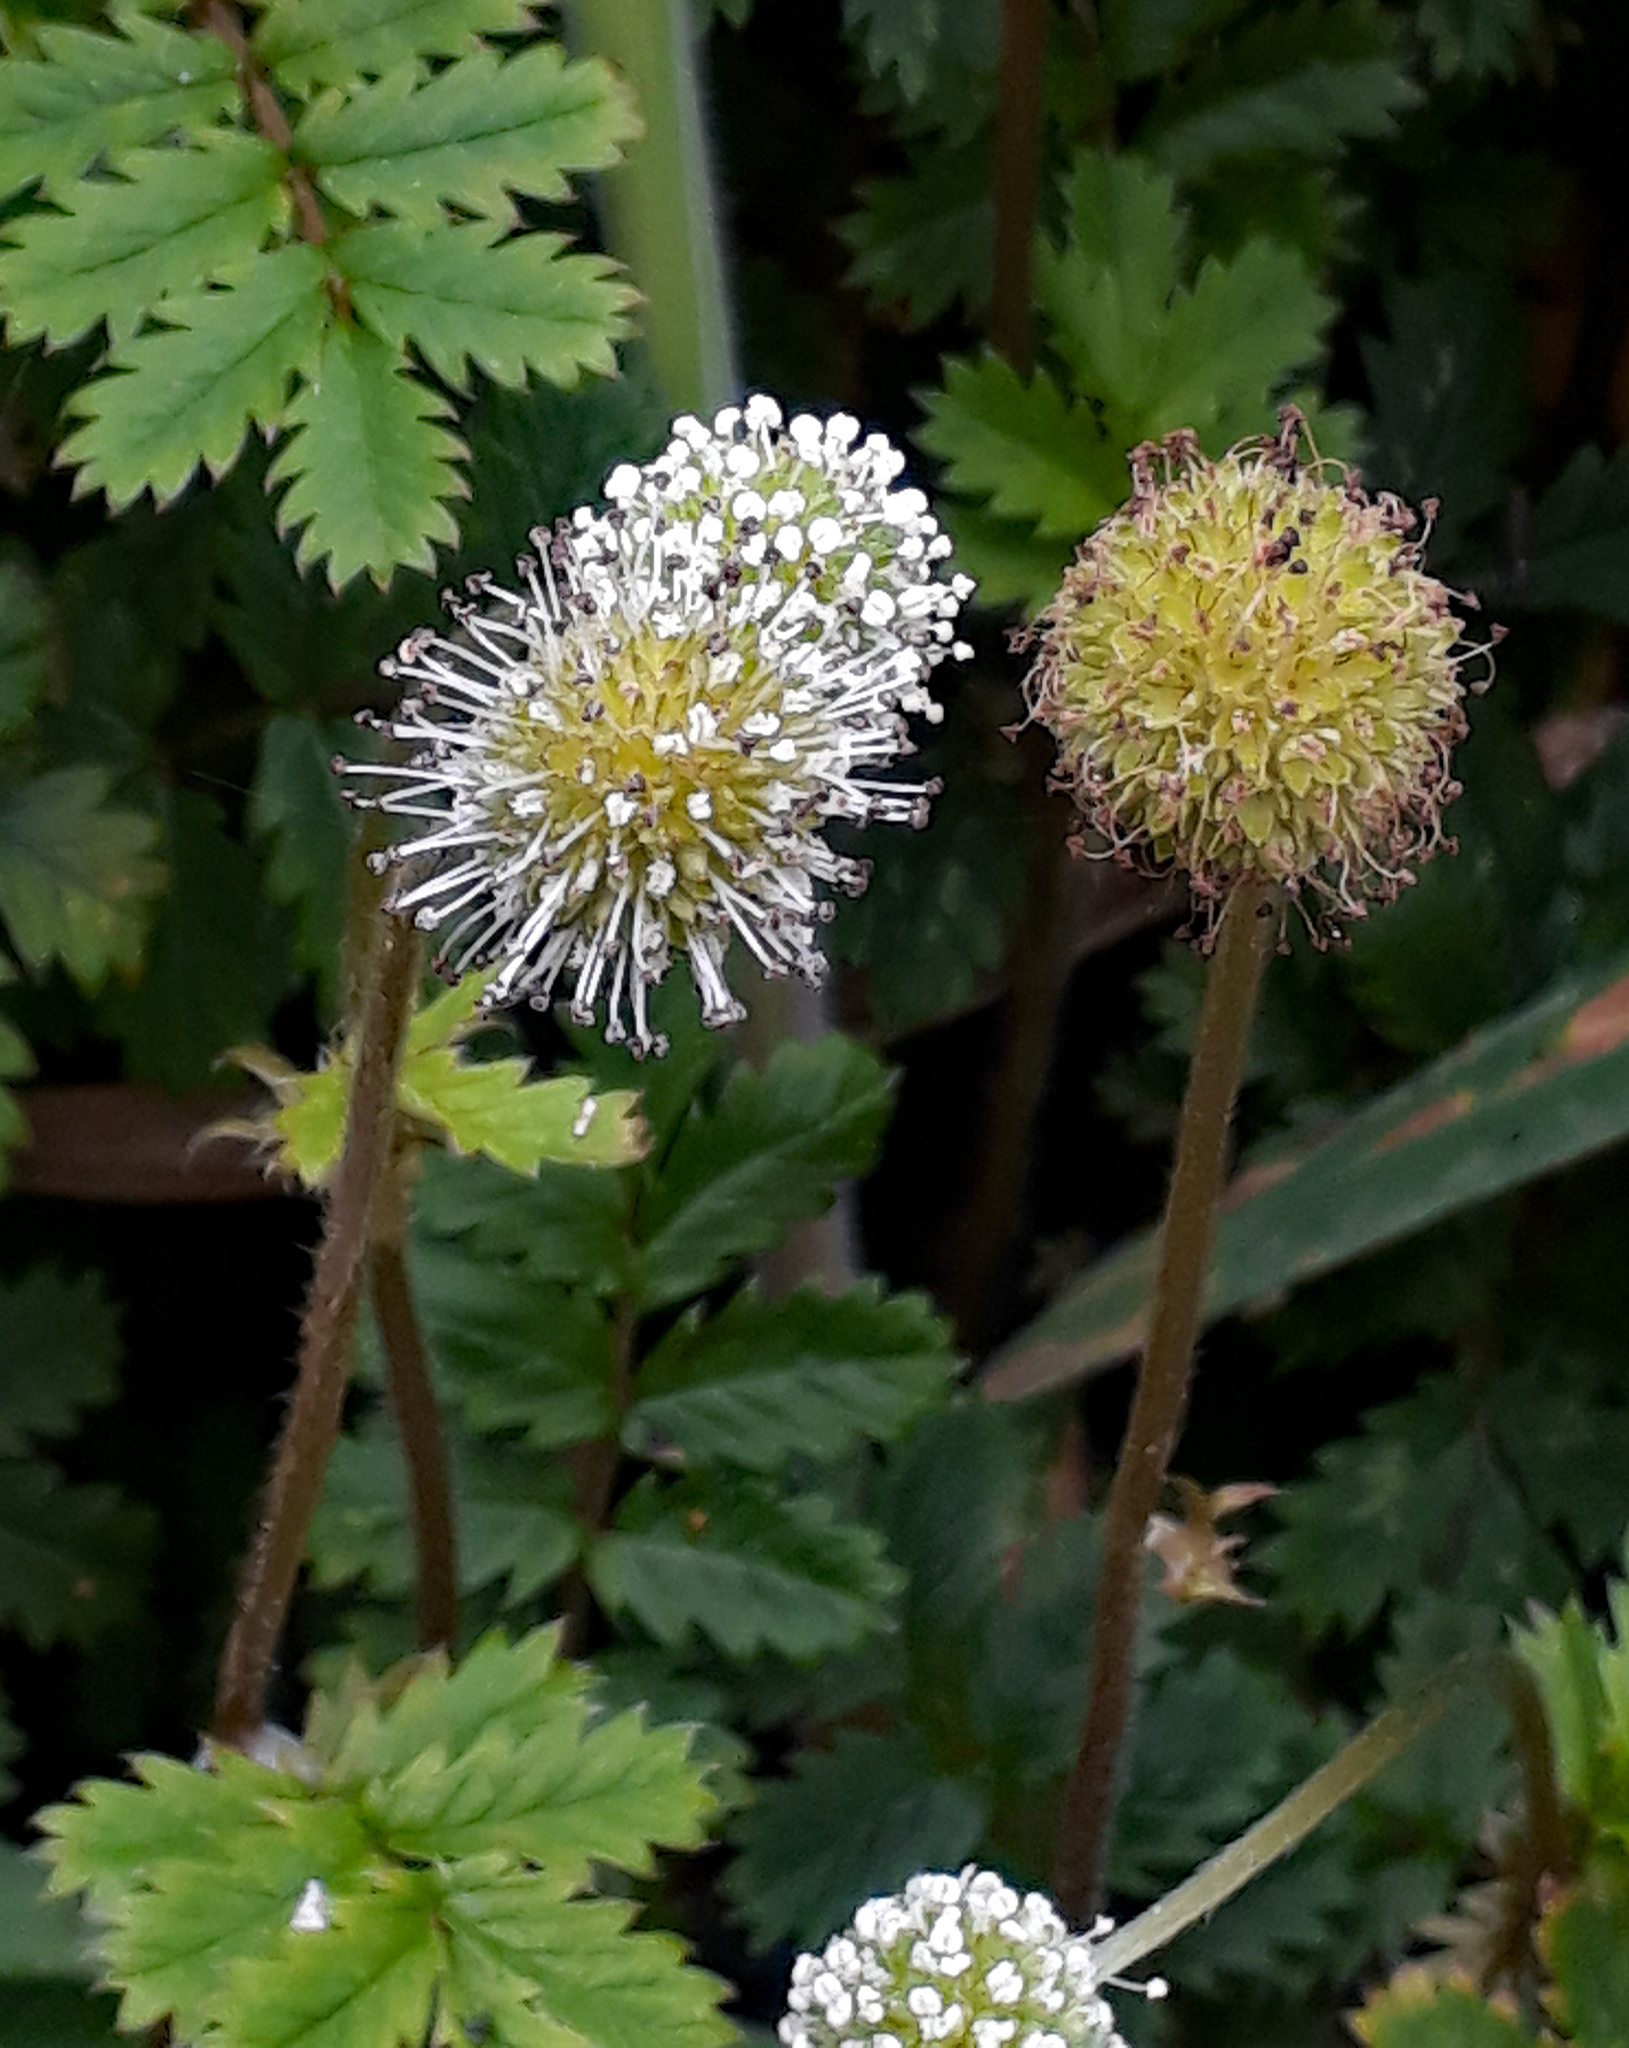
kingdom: Plantae
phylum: Tracheophyta
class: Magnoliopsida
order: Rosales
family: Rosaceae
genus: Acaena
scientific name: Acaena anserinifolia
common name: Bronze pirri-pirri-bur
